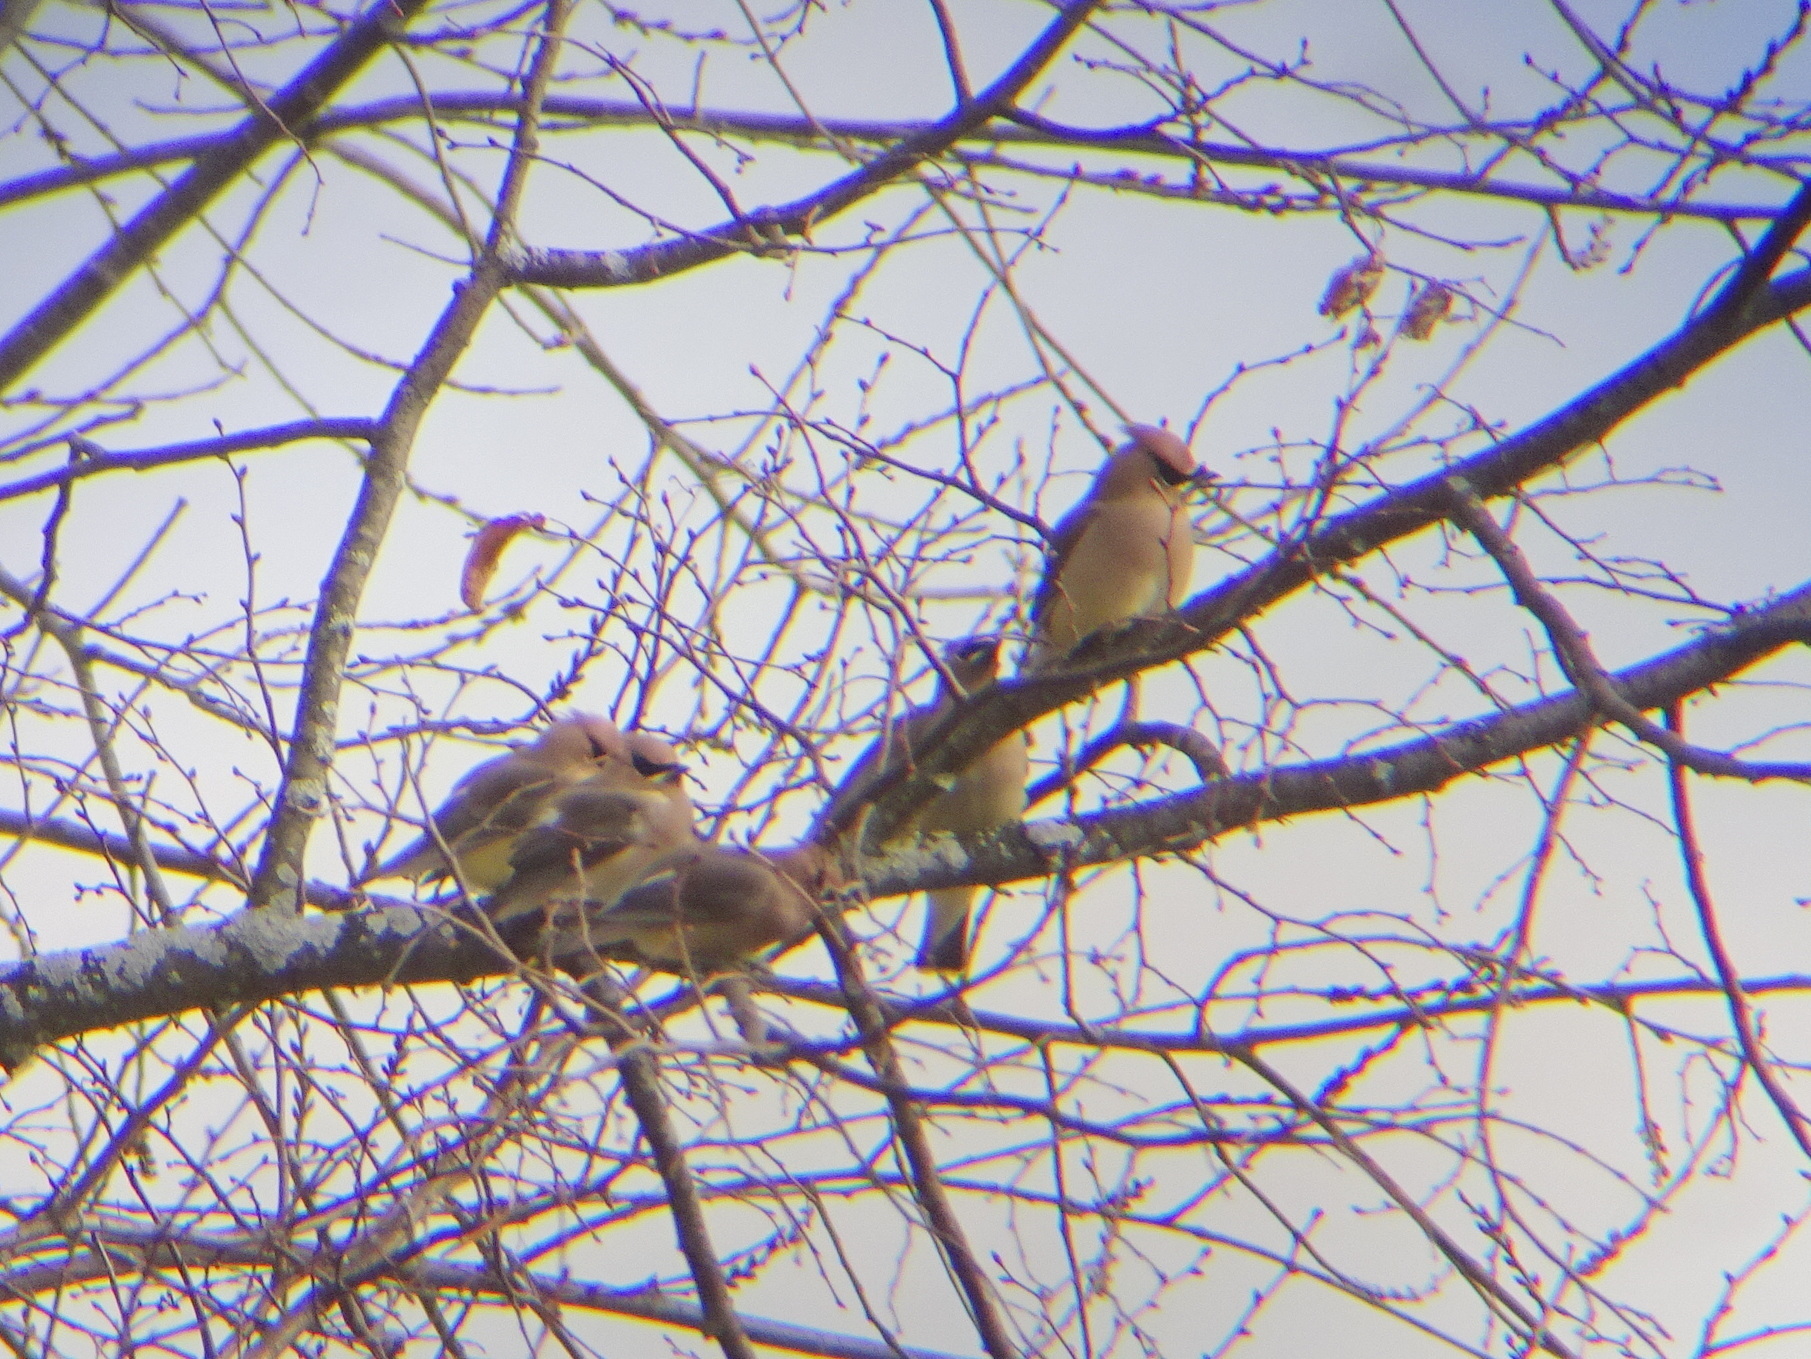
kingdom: Animalia
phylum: Chordata
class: Aves
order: Passeriformes
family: Bombycillidae
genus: Bombycilla
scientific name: Bombycilla cedrorum
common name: Cedar waxwing
